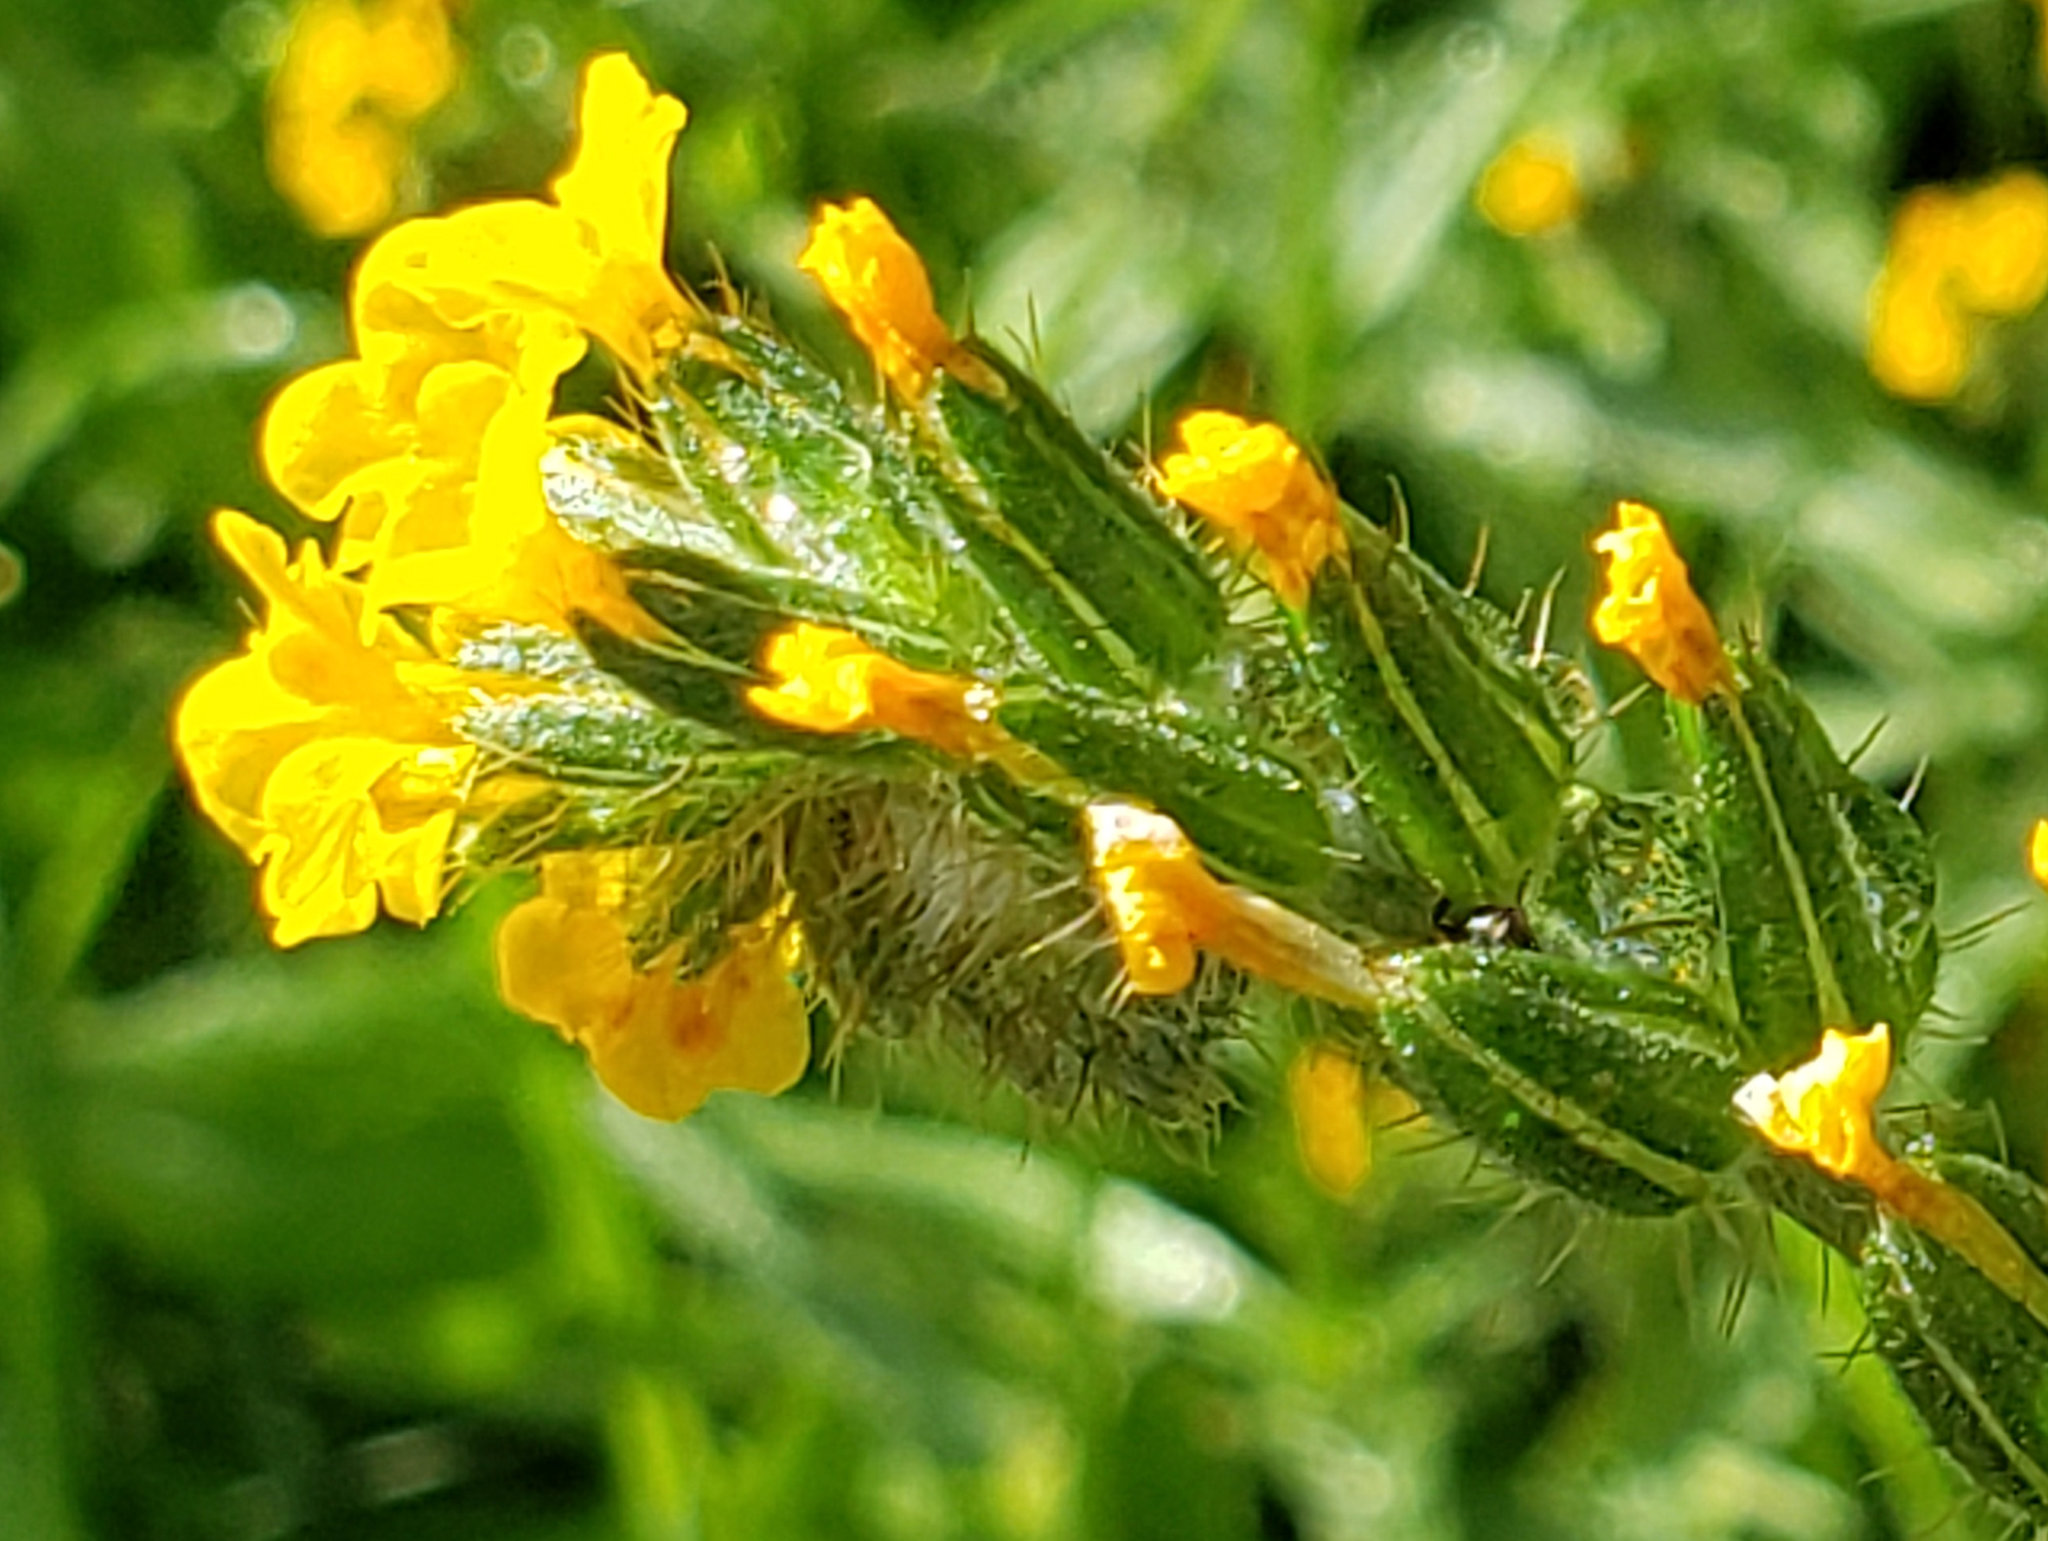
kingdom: Plantae
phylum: Tracheophyta
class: Magnoliopsida
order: Boraginales
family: Boraginaceae
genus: Amsinckia
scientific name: Amsinckia menziesii
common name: Menzies' fiddleneck
